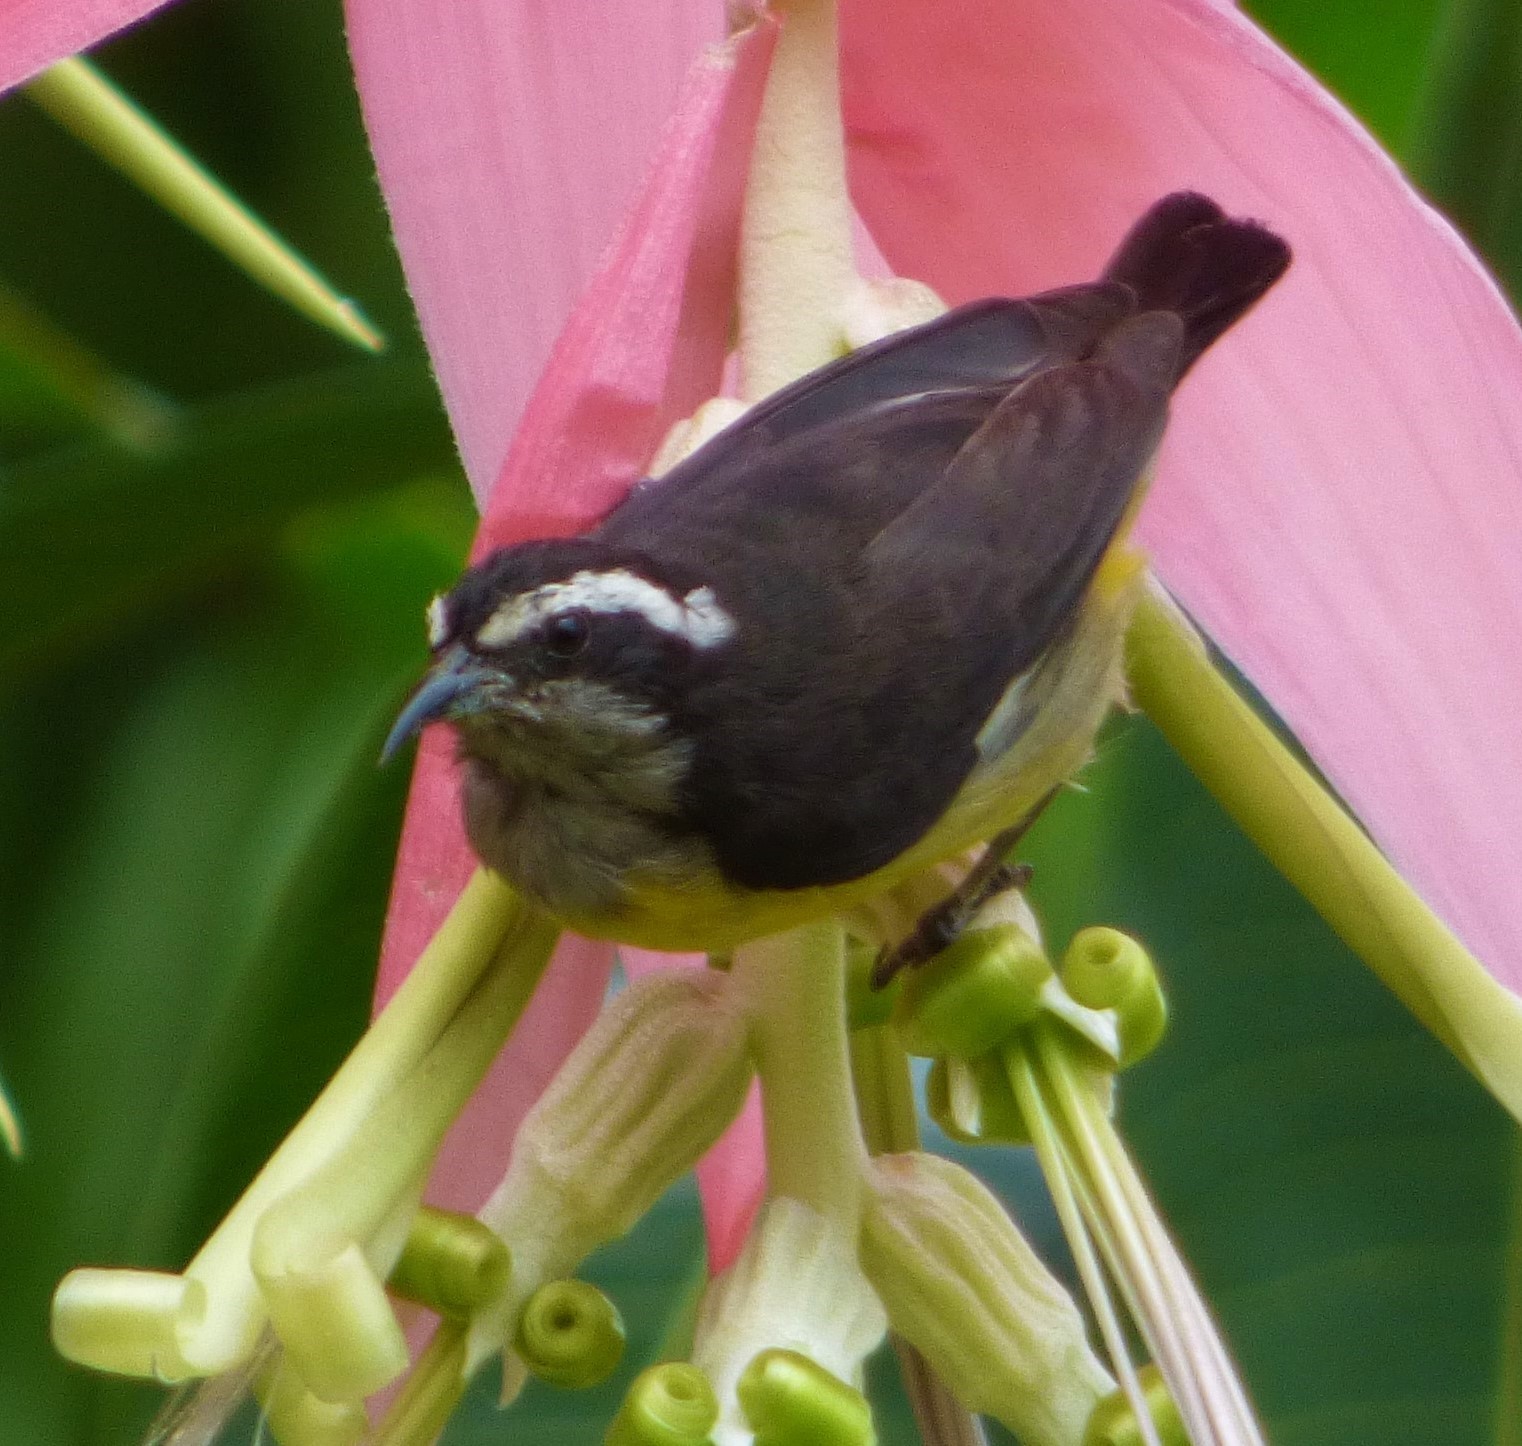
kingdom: Animalia
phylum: Chordata
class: Aves
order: Passeriformes
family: Thraupidae
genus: Coereba
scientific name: Coereba flaveola
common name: Bananaquit
